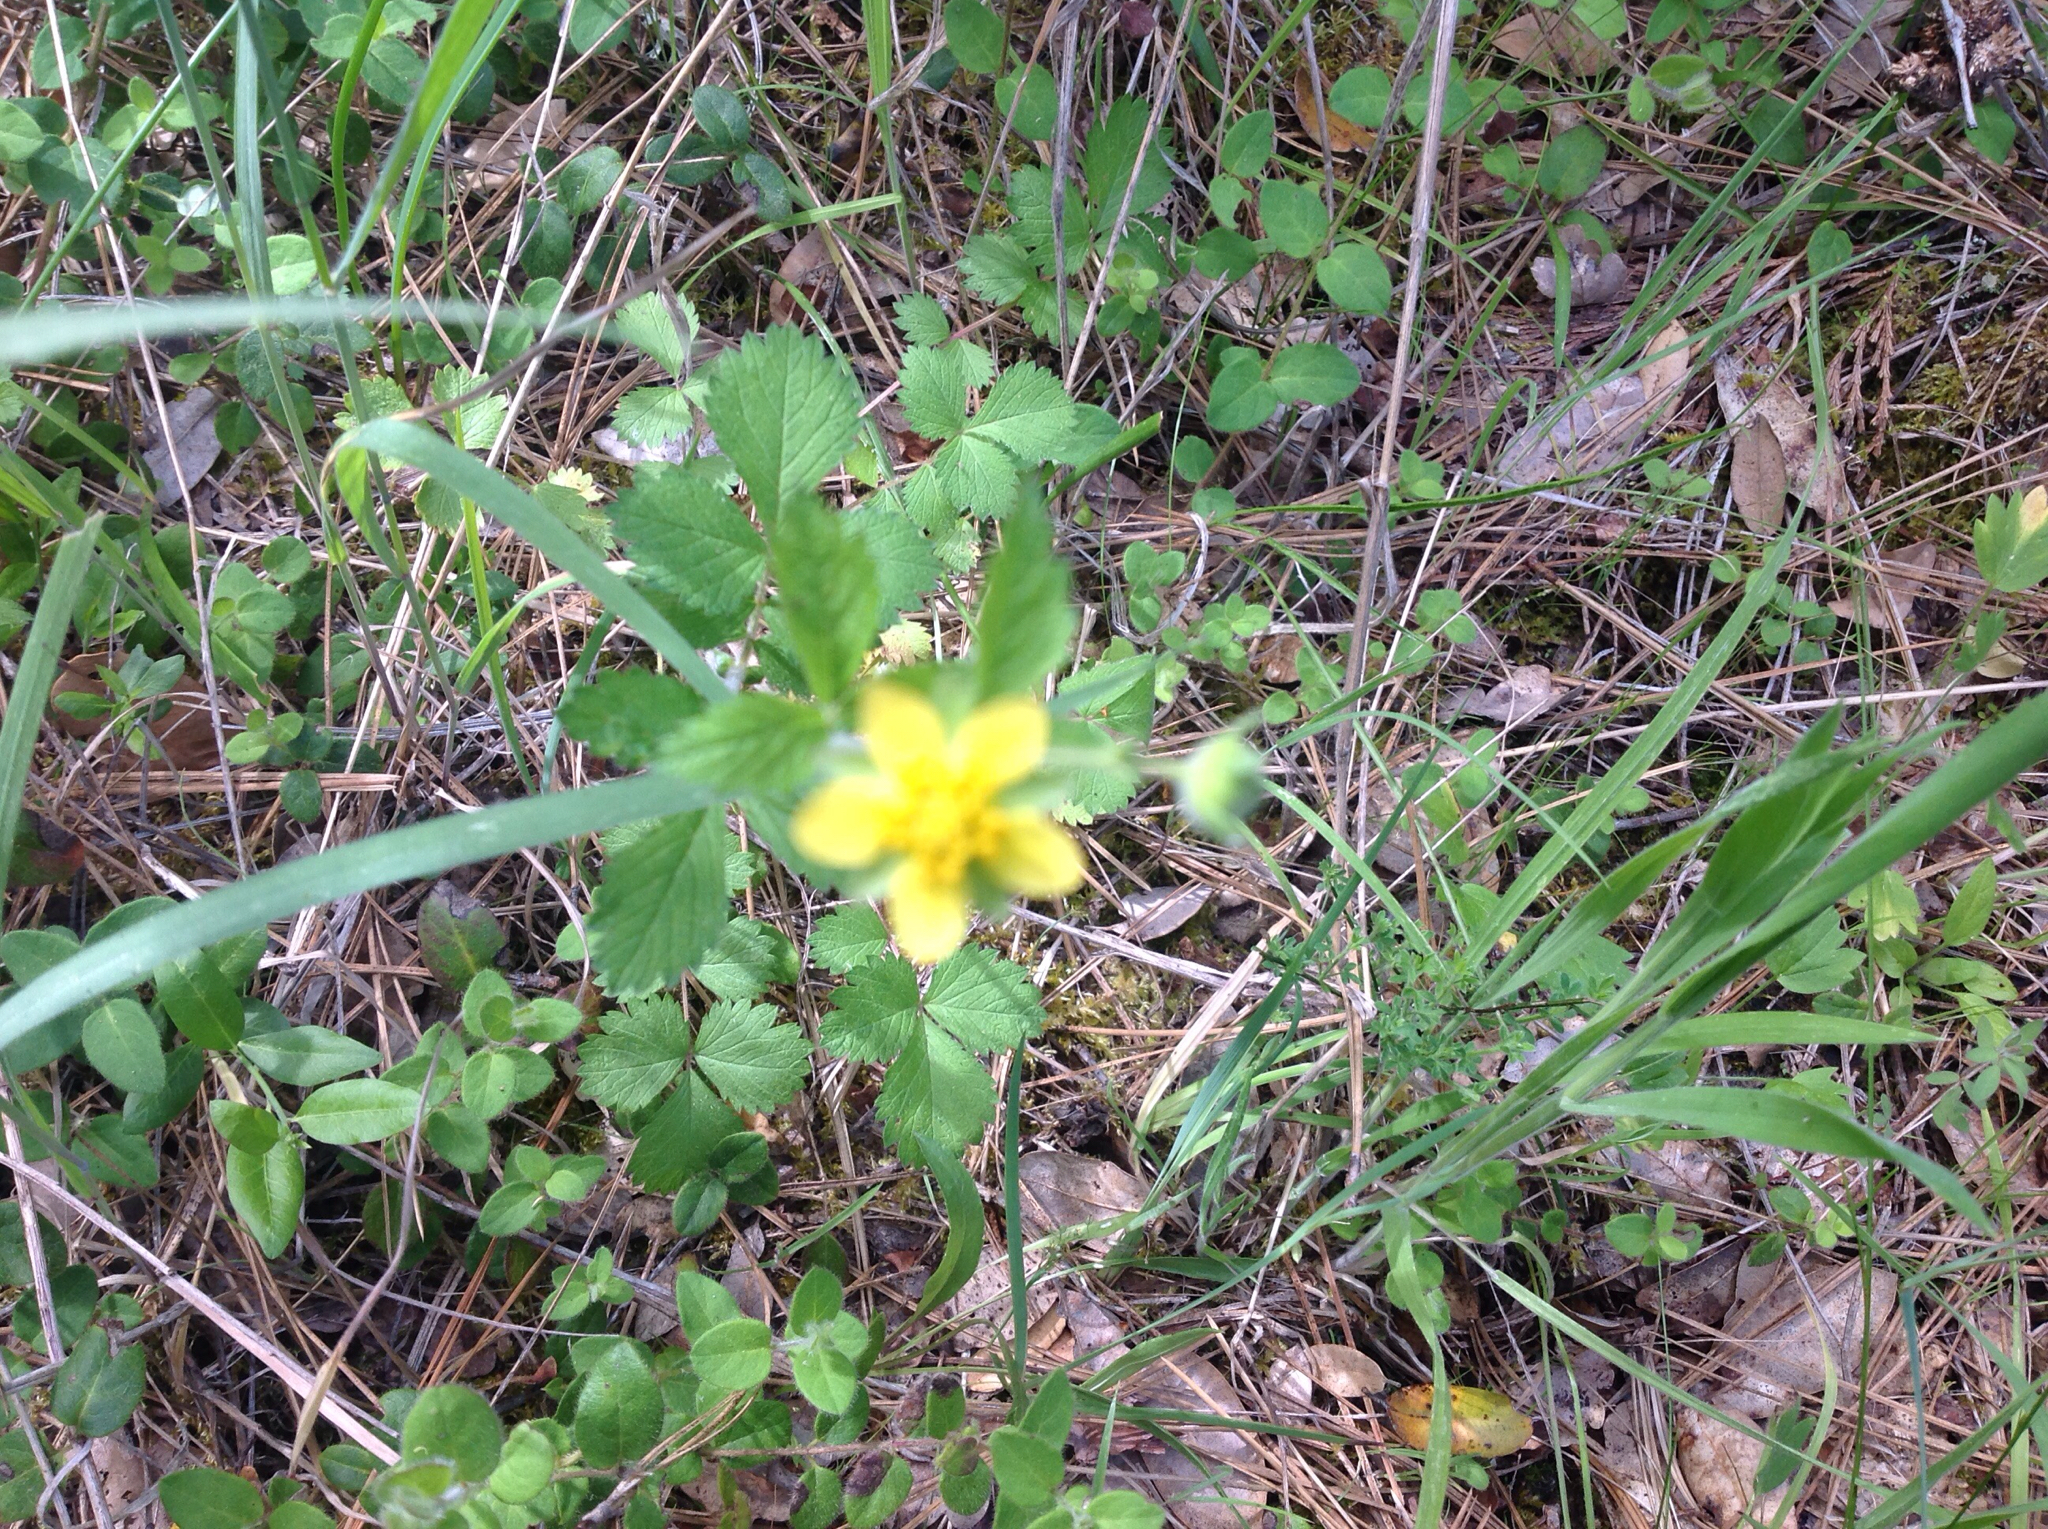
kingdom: Plantae
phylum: Tracheophyta
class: Magnoliopsida
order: Rosales
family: Rosaceae
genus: Drymocallis
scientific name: Drymocallis glandulosa
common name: Sticky cinquefoil
